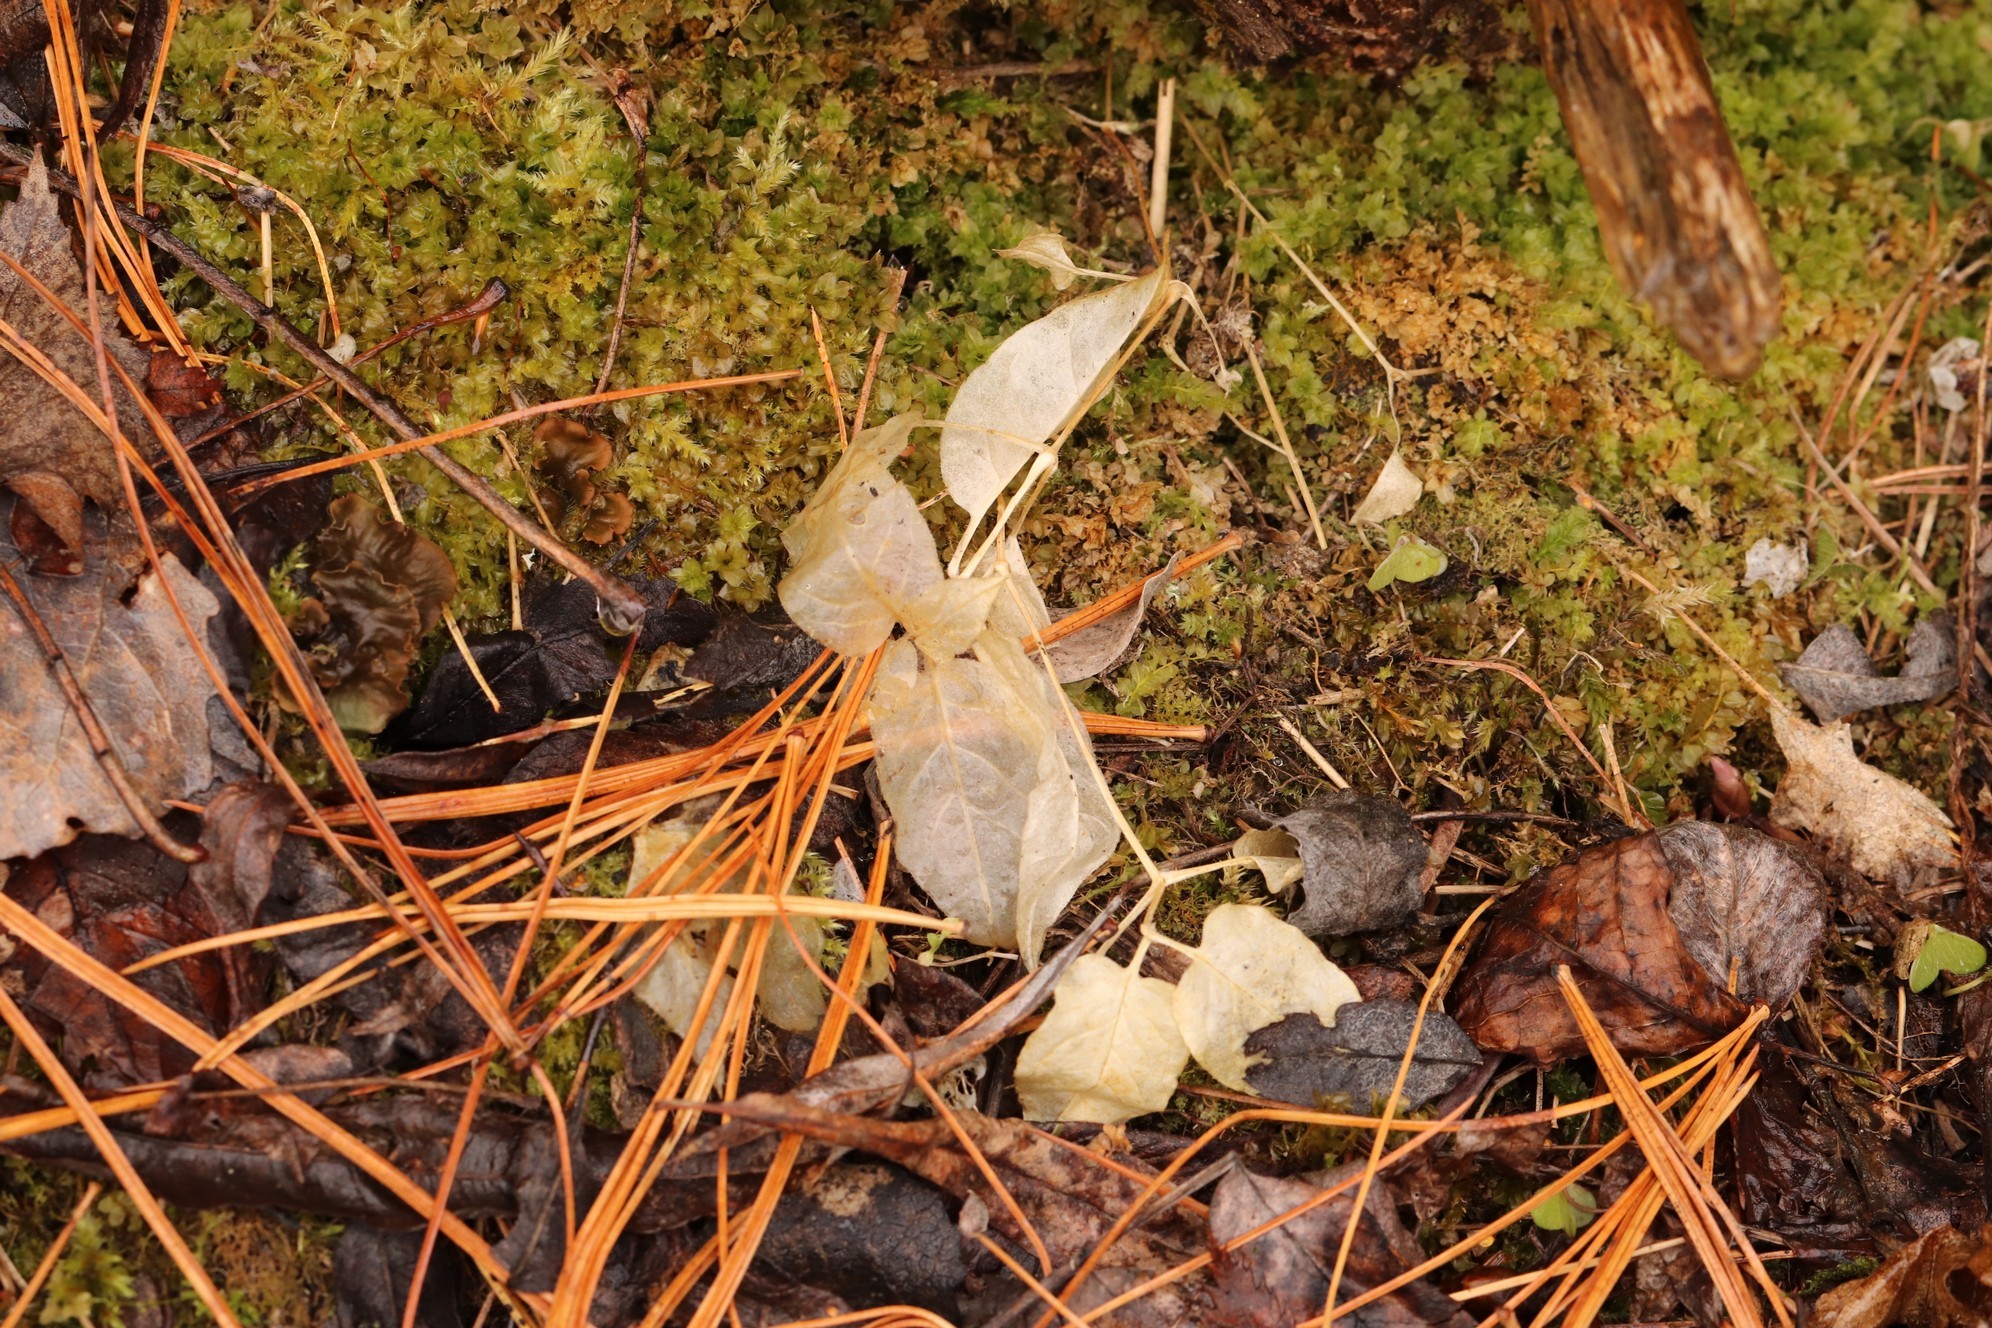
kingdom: Plantae
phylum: Tracheophyta
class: Magnoliopsida
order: Caryophyllales
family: Caryophyllaceae
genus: Stellaria
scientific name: Stellaria bungeana
